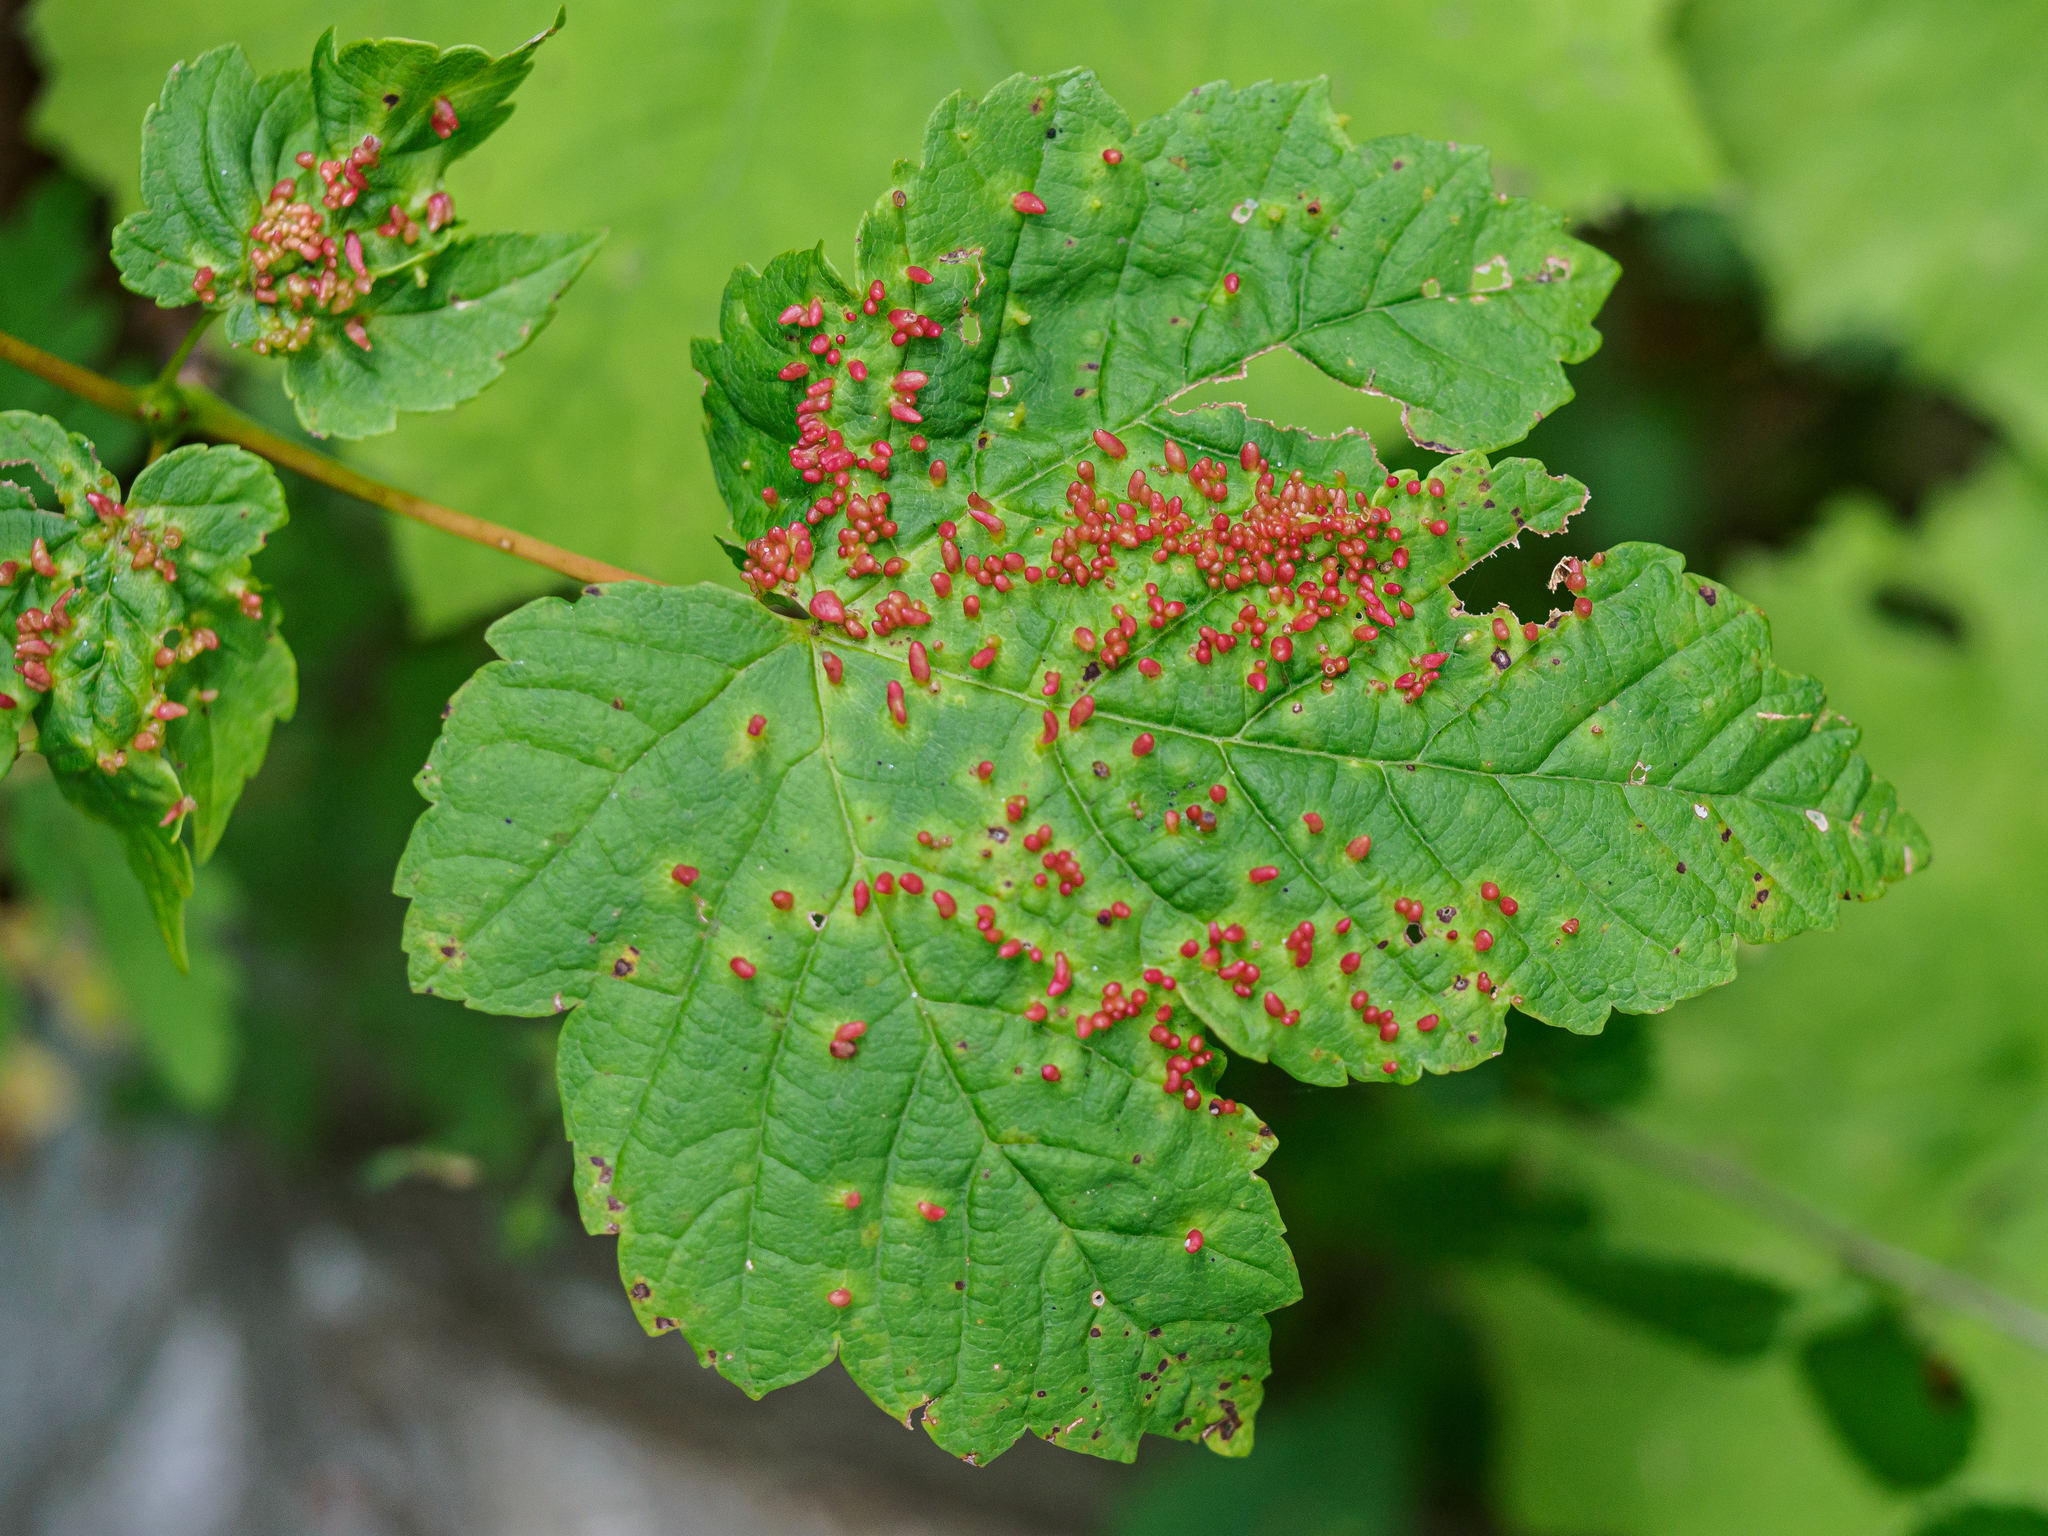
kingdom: Animalia
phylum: Arthropoda
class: Arachnida
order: Trombidiformes
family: Eriophyidae
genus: Aceria
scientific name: Aceria cephaloneus
